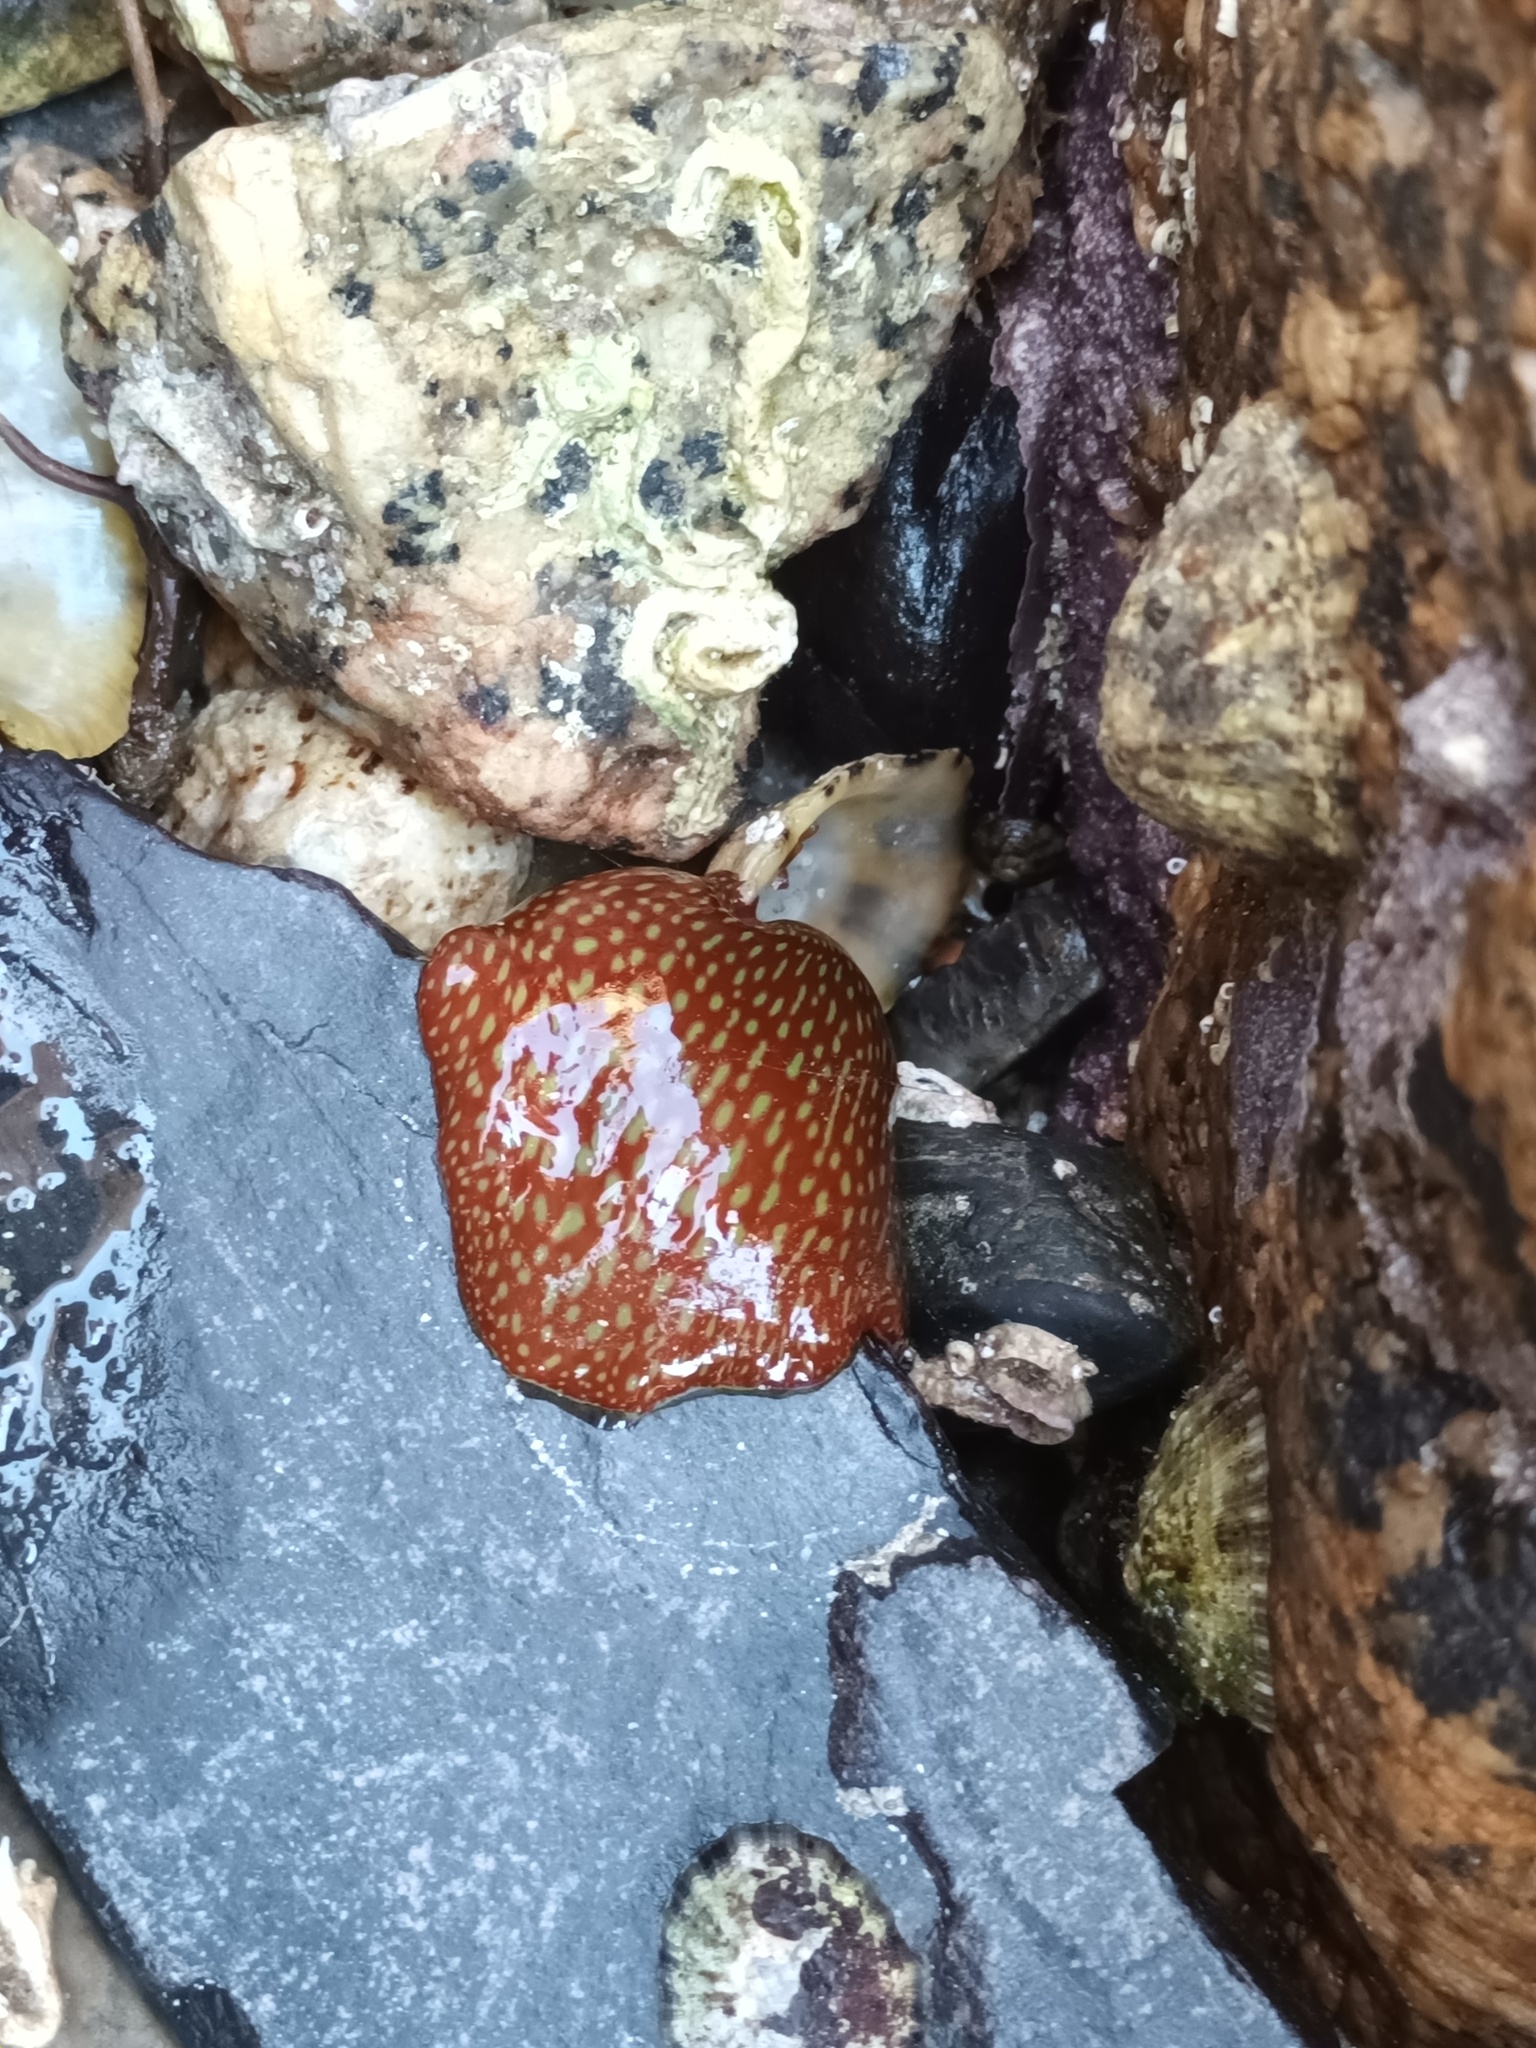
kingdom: Animalia
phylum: Cnidaria
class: Anthozoa
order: Actiniaria
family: Actiniidae
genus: Actinia
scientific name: Actinia fragacea
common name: Strawberry anemone
